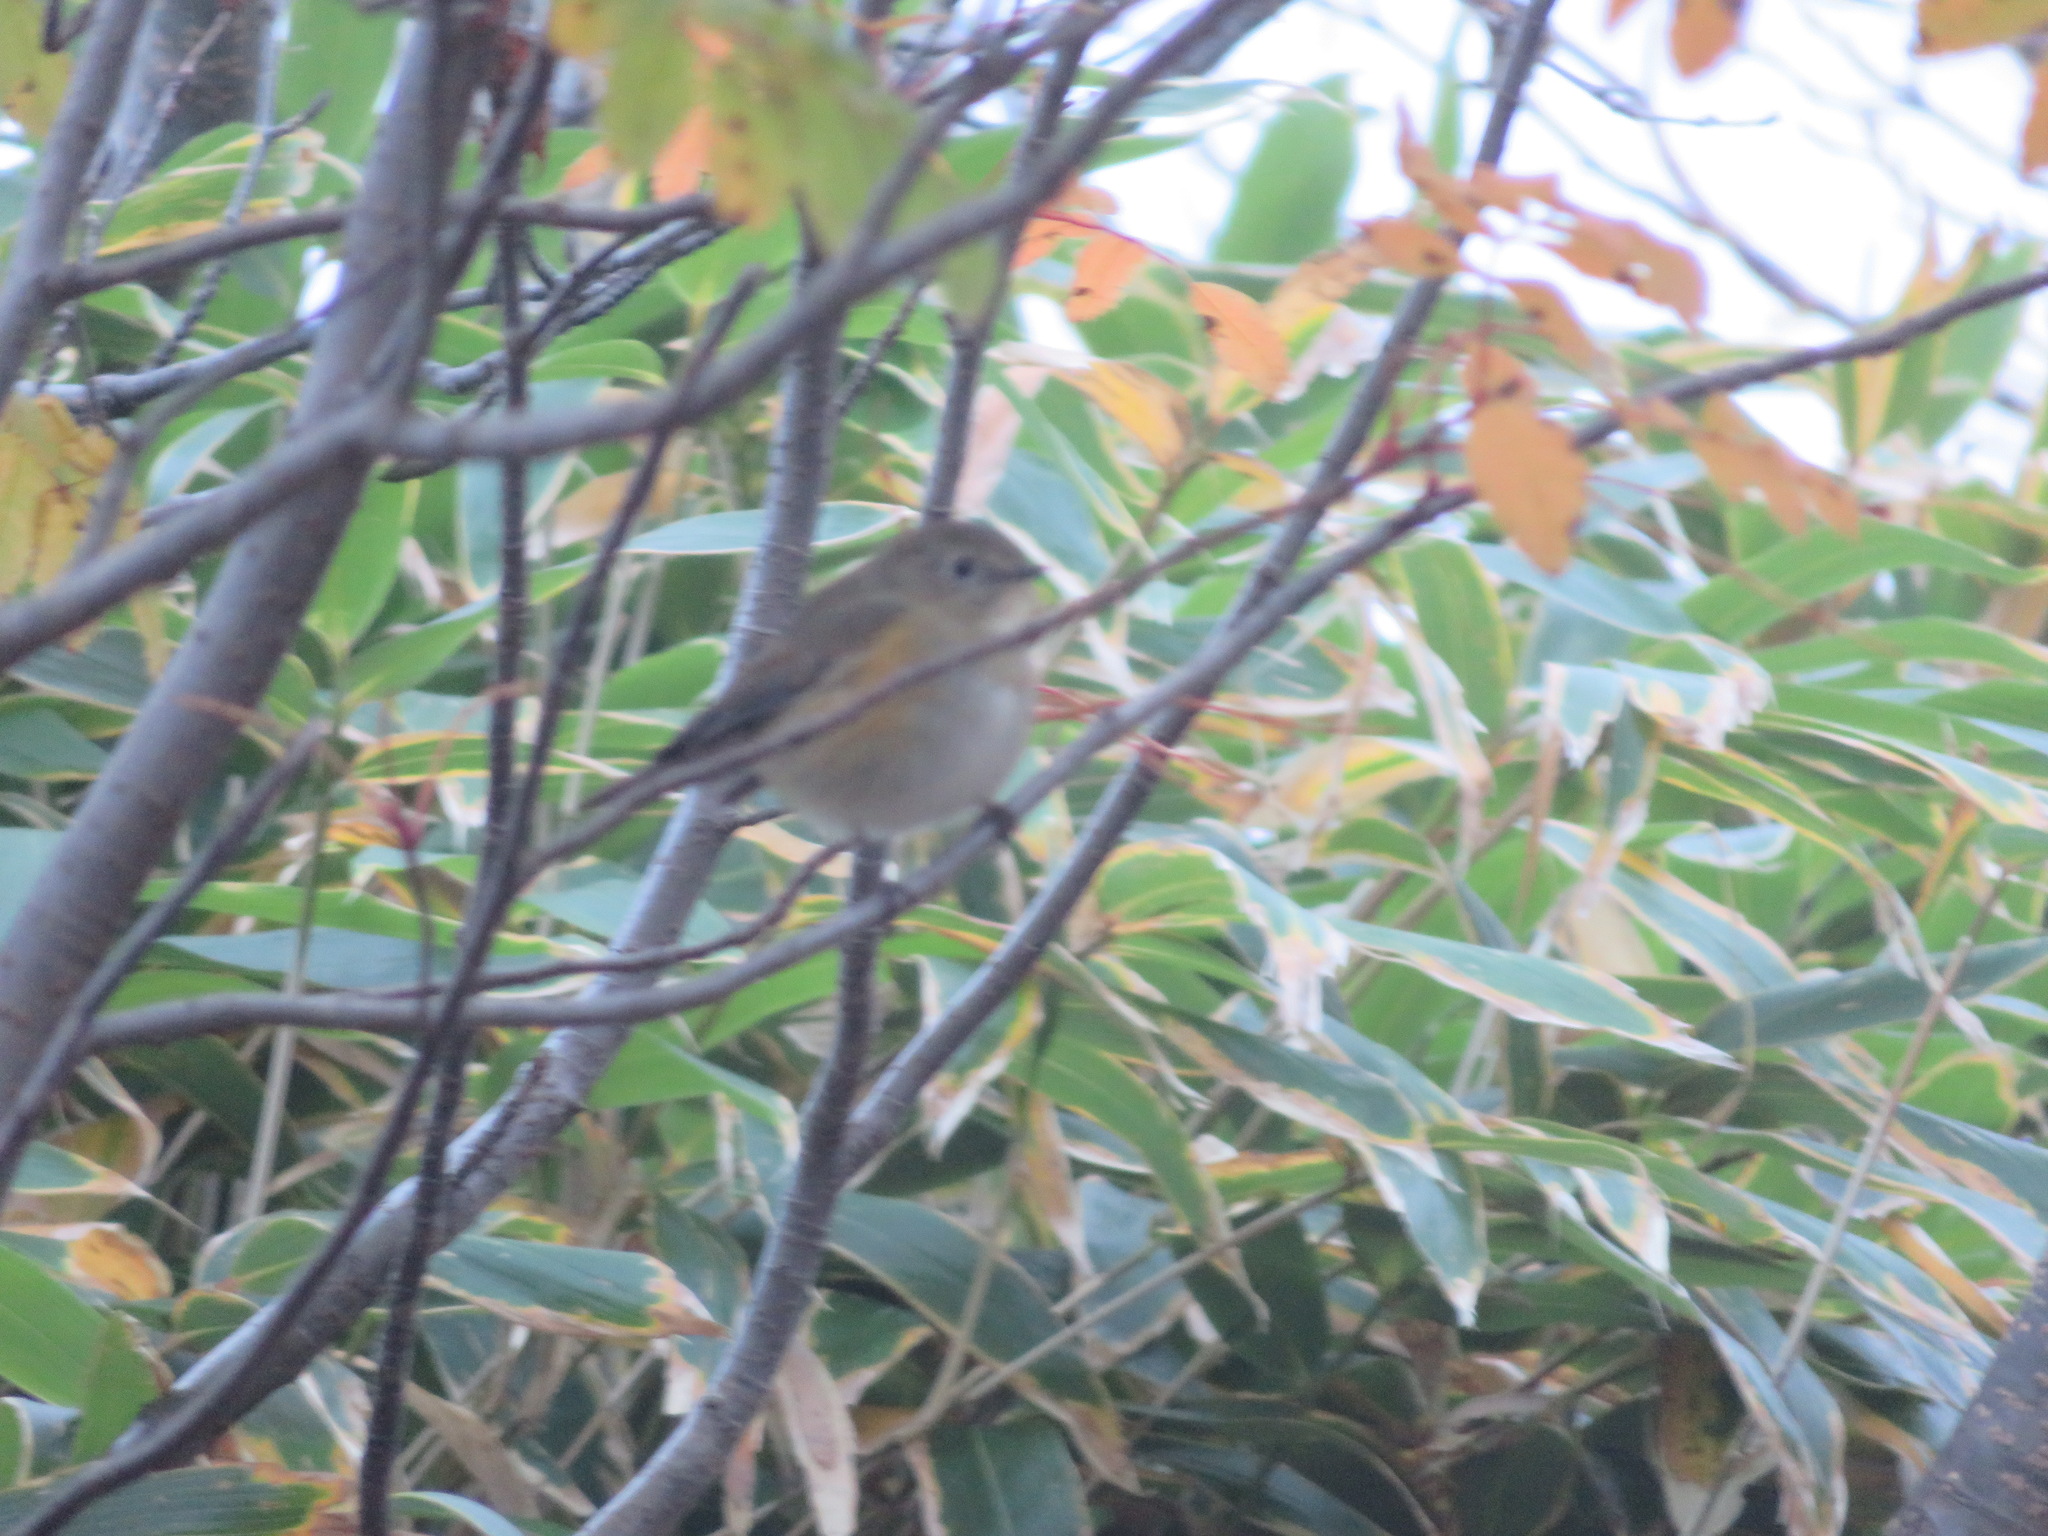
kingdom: Animalia
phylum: Chordata
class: Aves
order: Passeriformes
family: Muscicapidae
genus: Tarsiger
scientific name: Tarsiger cyanurus
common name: Red-flanked bluetail
